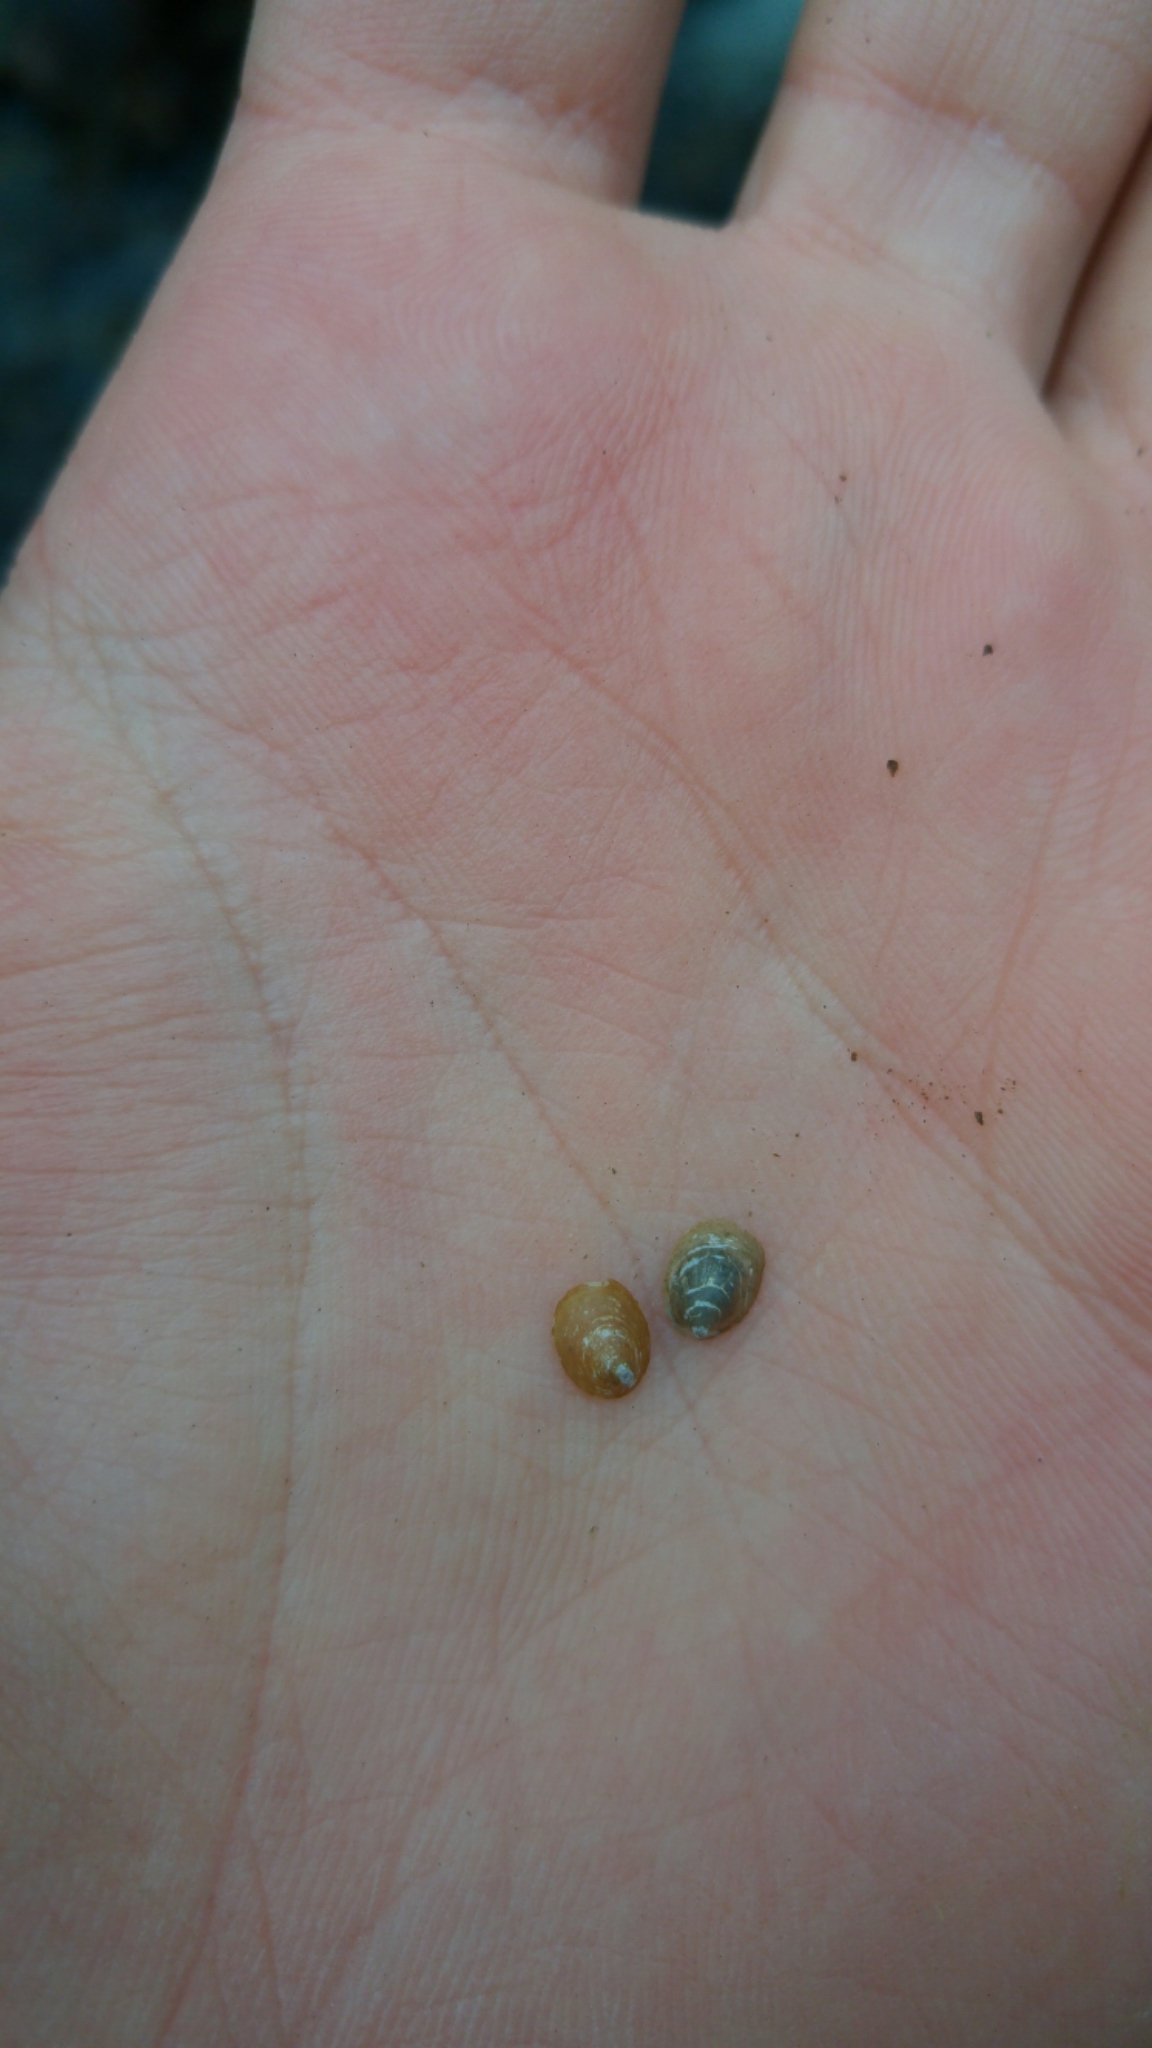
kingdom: Animalia
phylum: Mollusca
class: Gastropoda
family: Planorbidae
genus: Ancylus
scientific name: Ancylus fluviatilis
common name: River limpet
